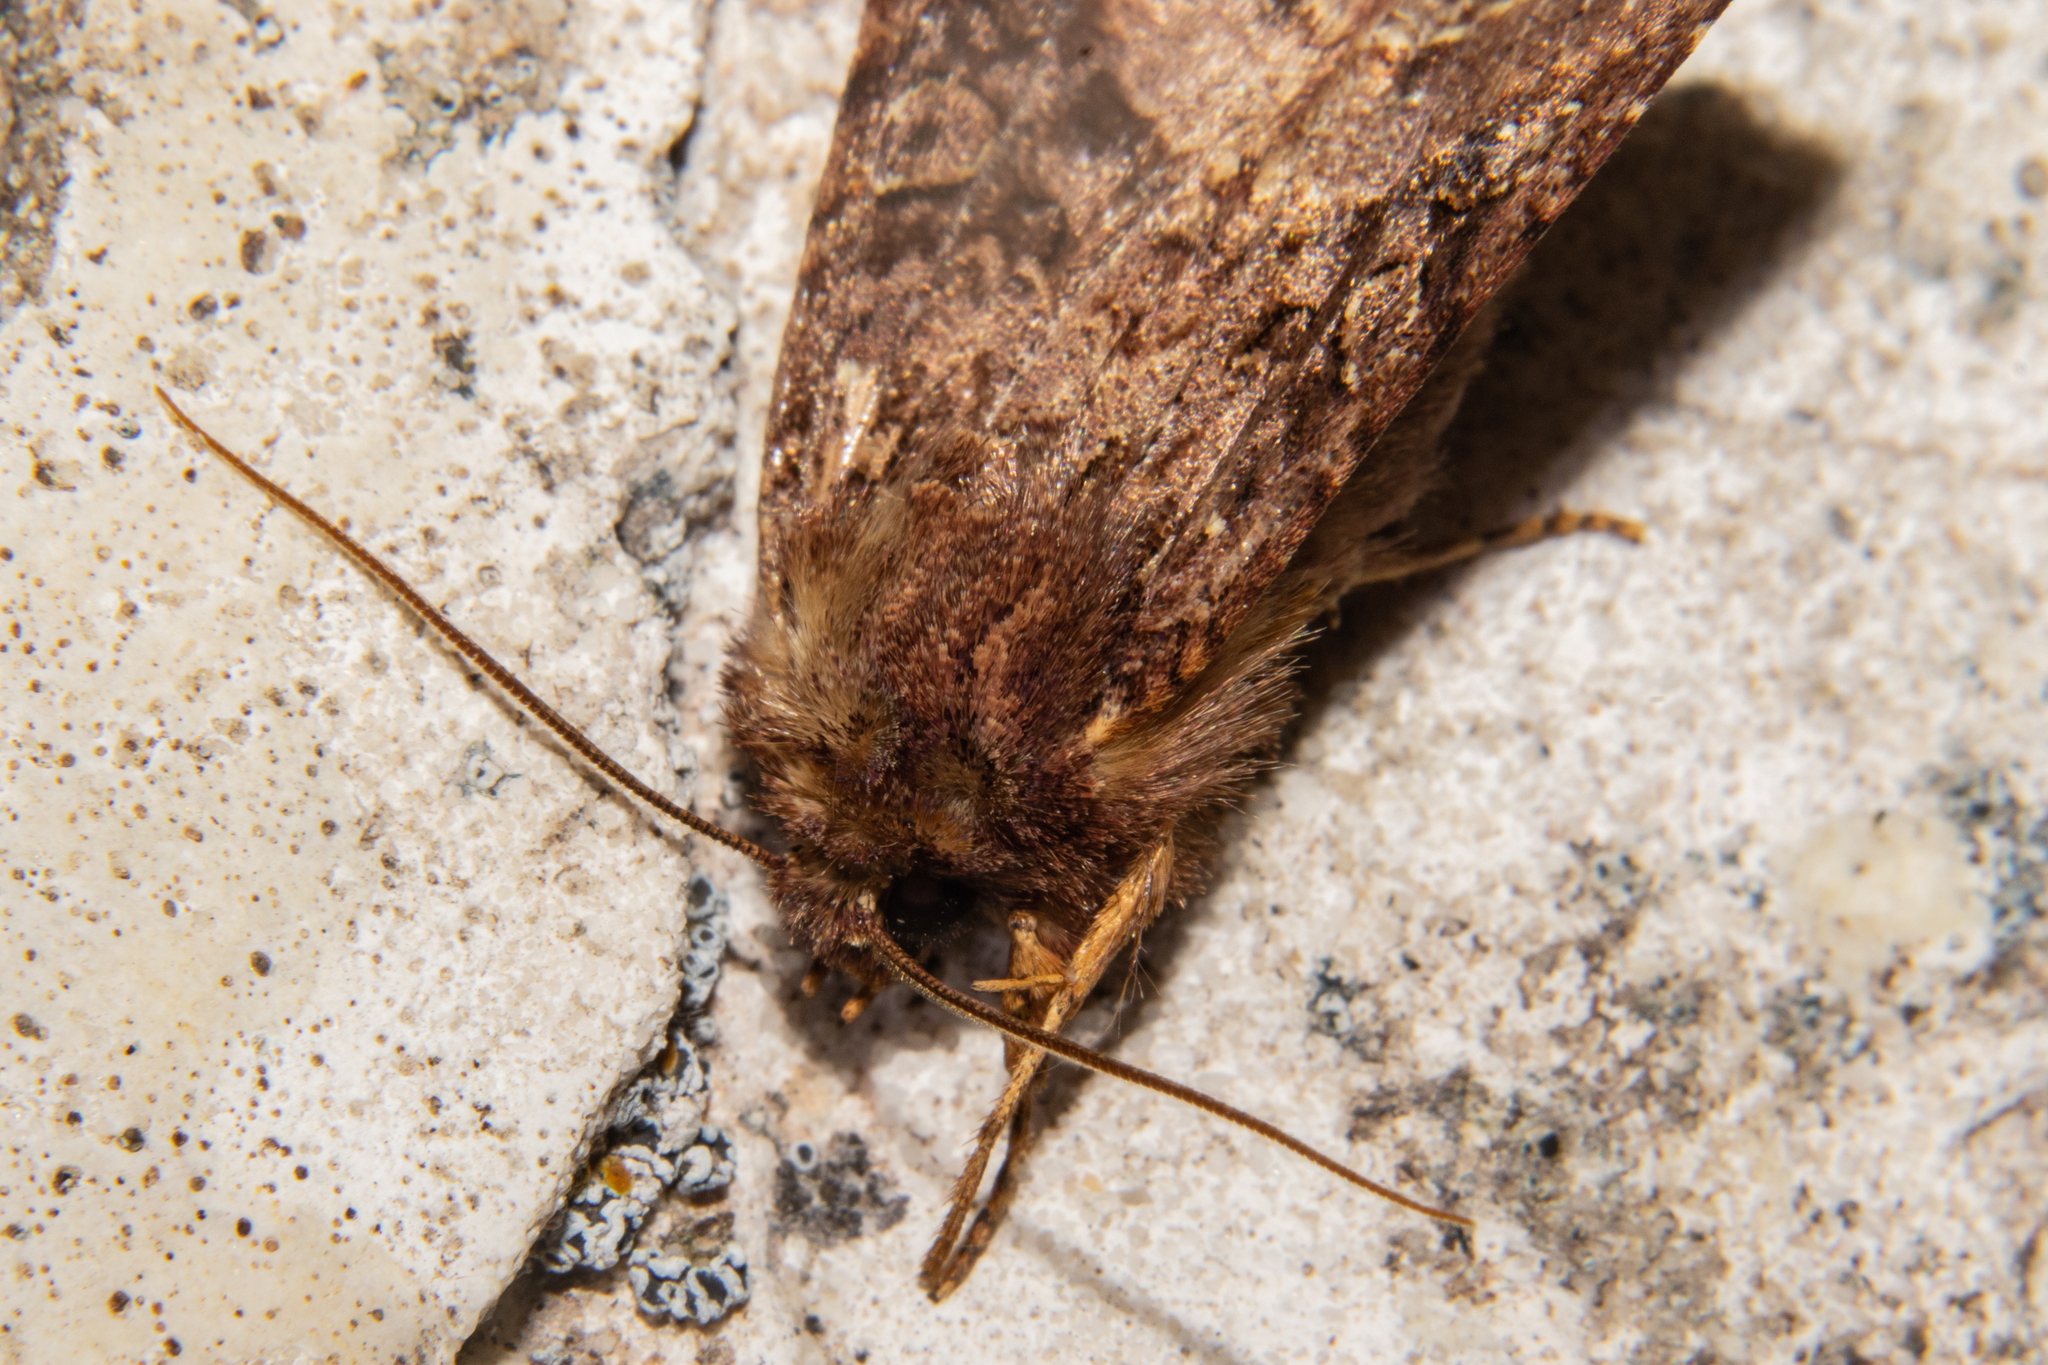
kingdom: Animalia
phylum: Arthropoda
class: Insecta
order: Lepidoptera
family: Noctuidae
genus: Meterana
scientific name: Meterana
